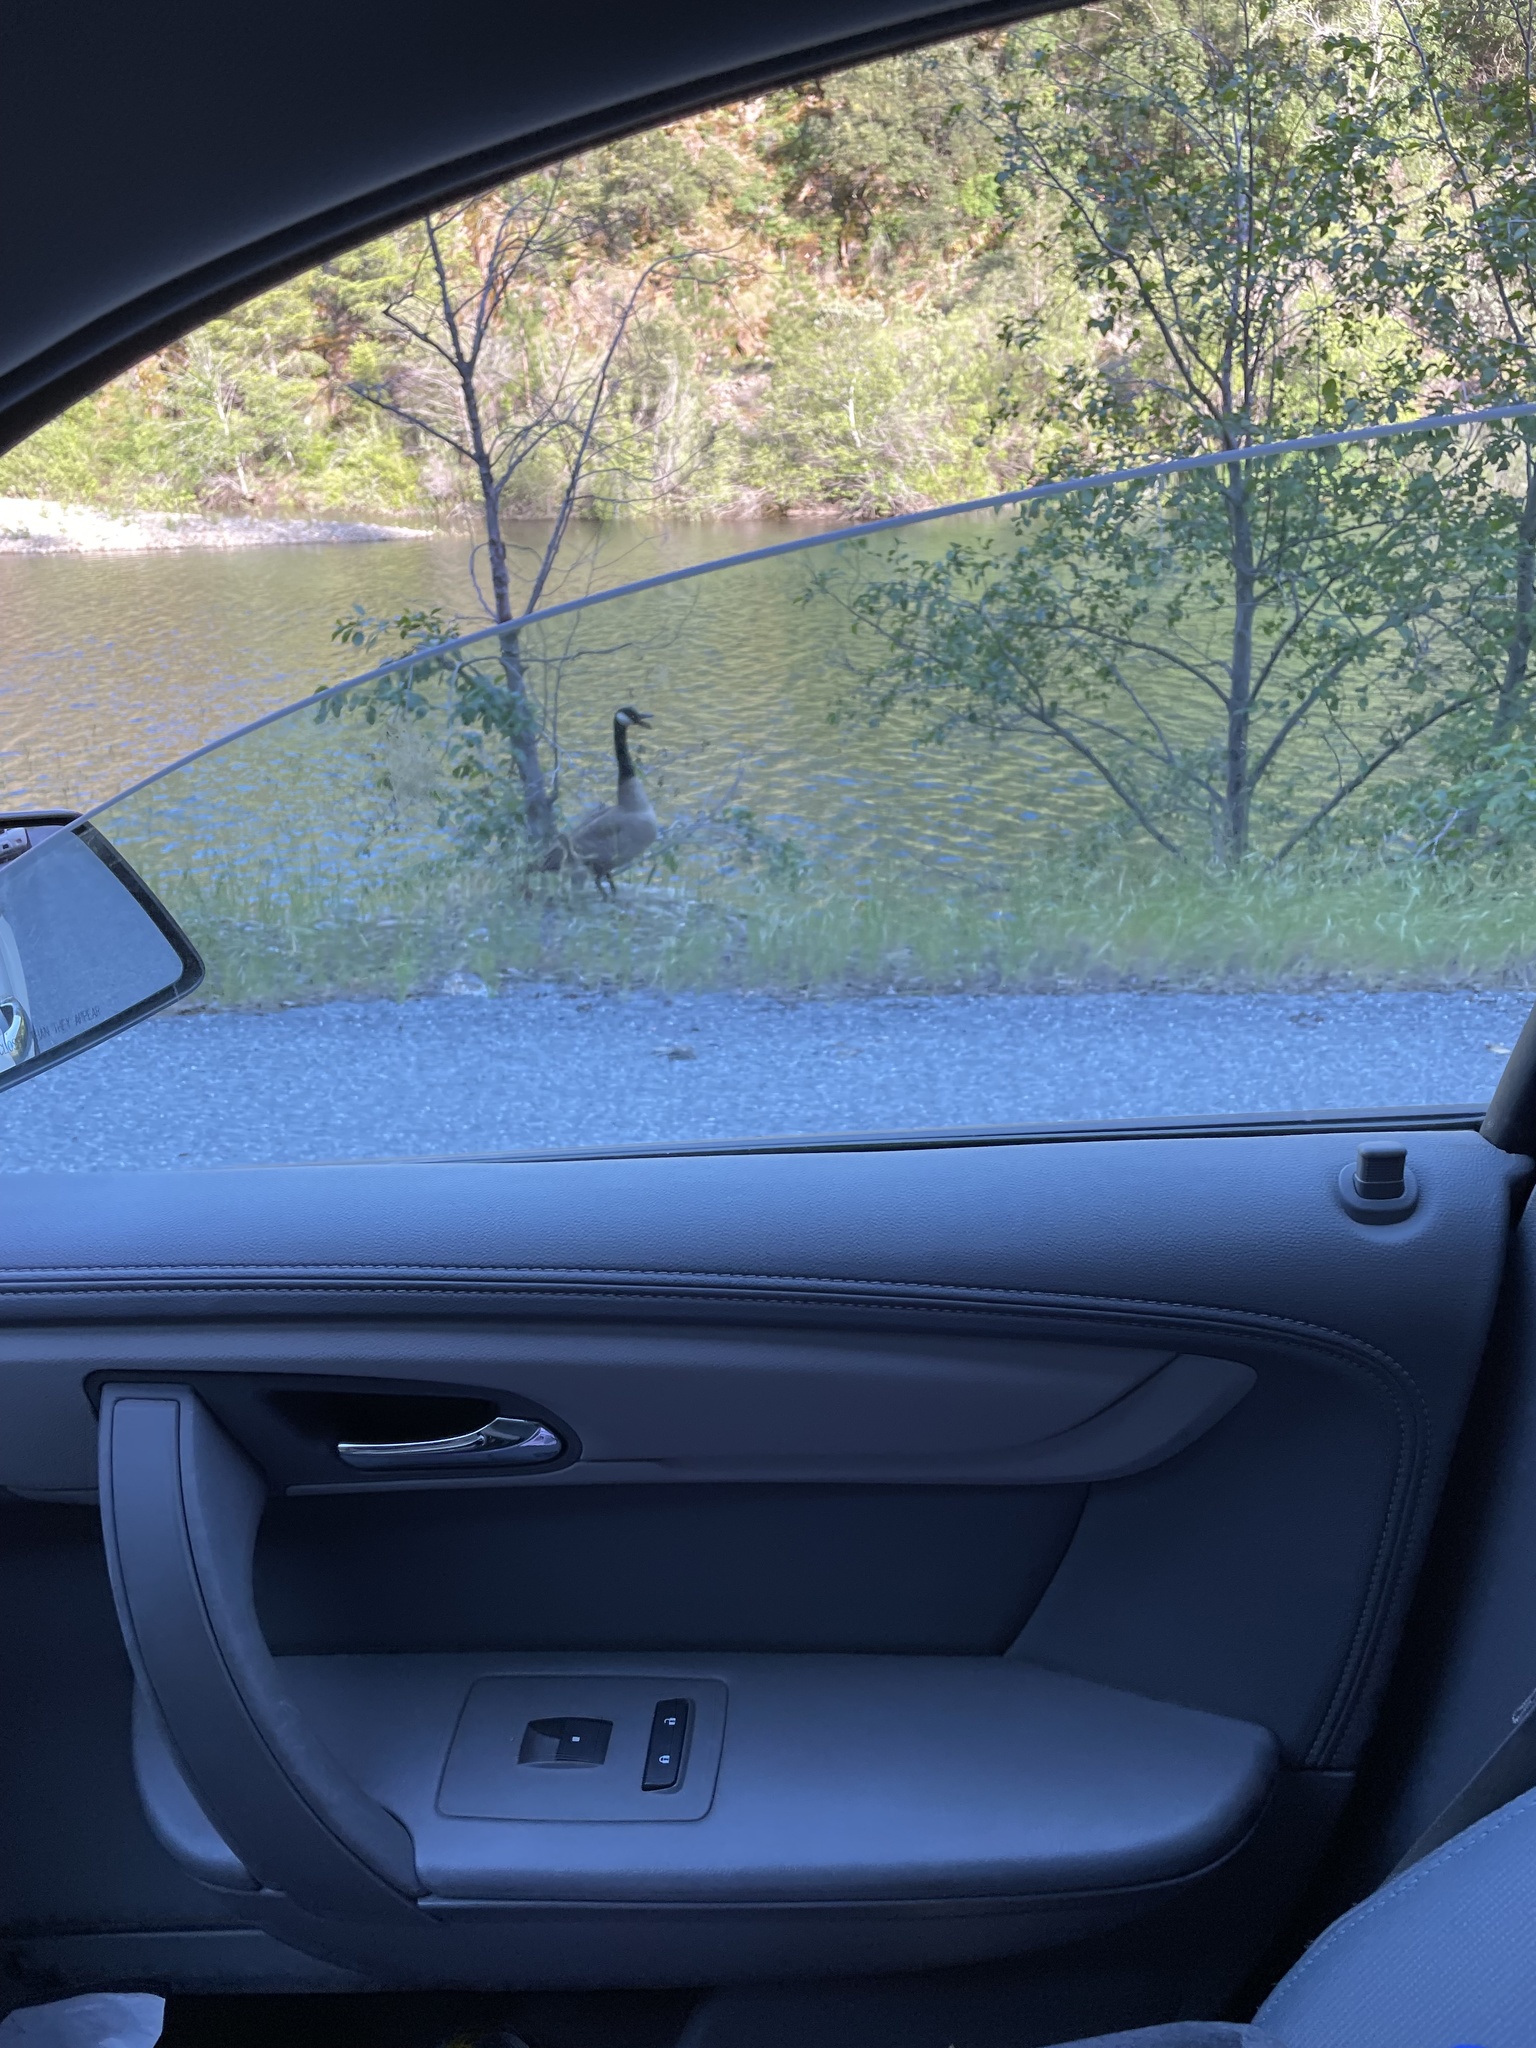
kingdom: Animalia
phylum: Chordata
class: Aves
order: Anseriformes
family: Anatidae
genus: Branta
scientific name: Branta canadensis
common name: Canada goose
